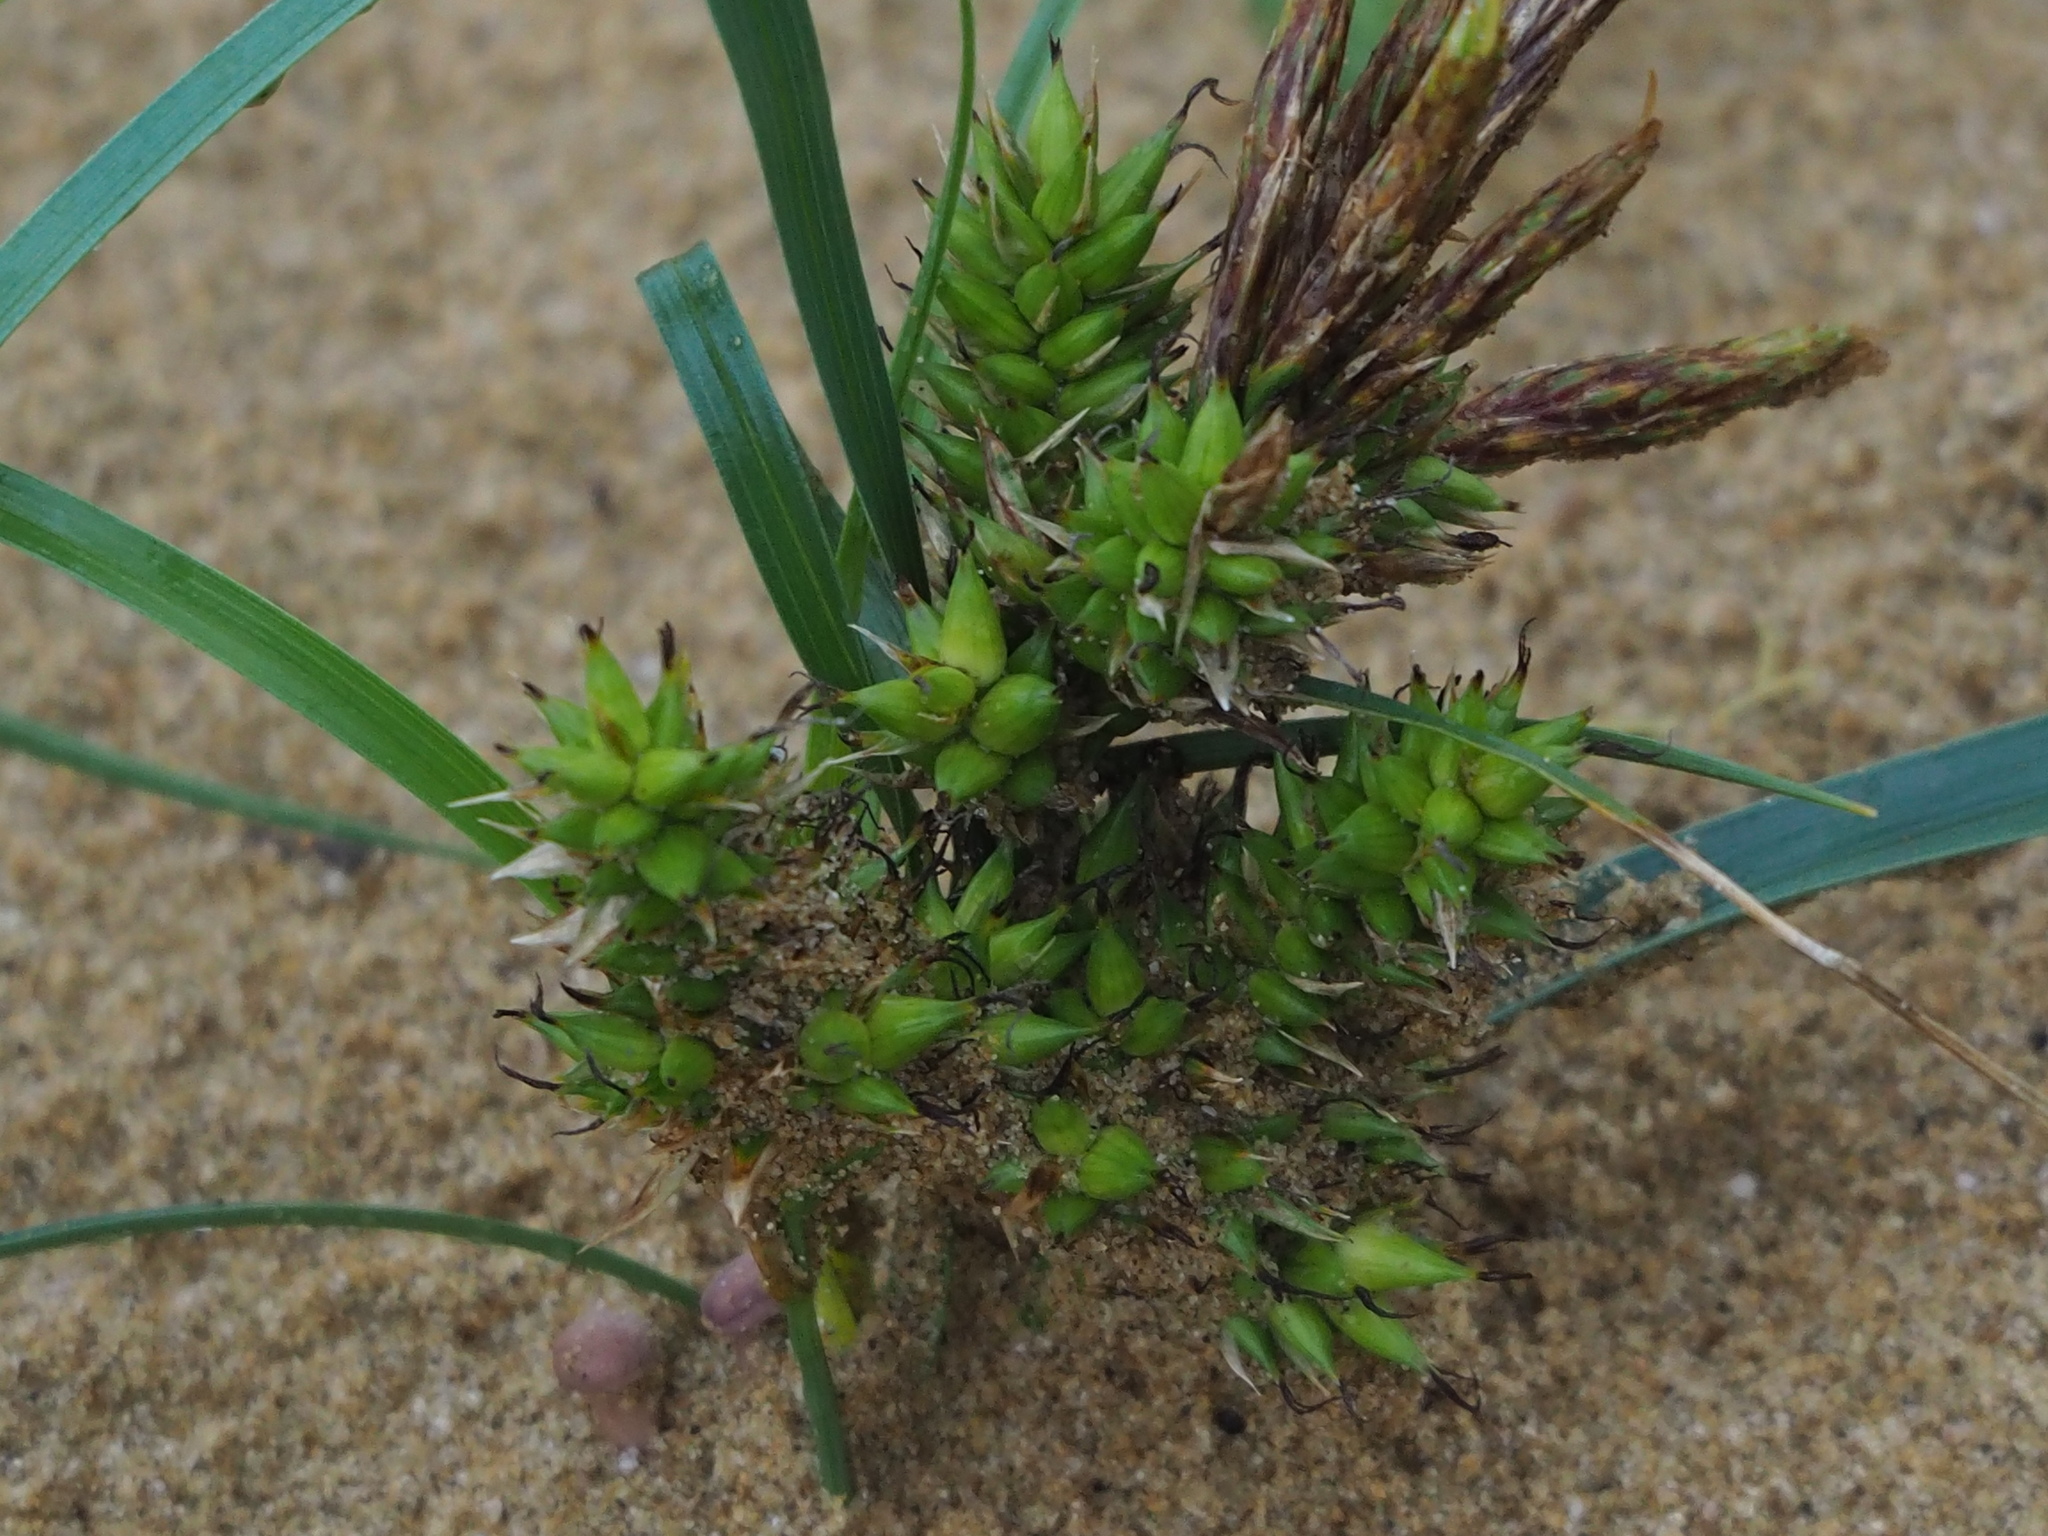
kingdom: Plantae
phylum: Tracheophyta
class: Liliopsida
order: Poales
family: Cyperaceae
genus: Carex
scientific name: Carex pumila
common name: Dwarf sedge
